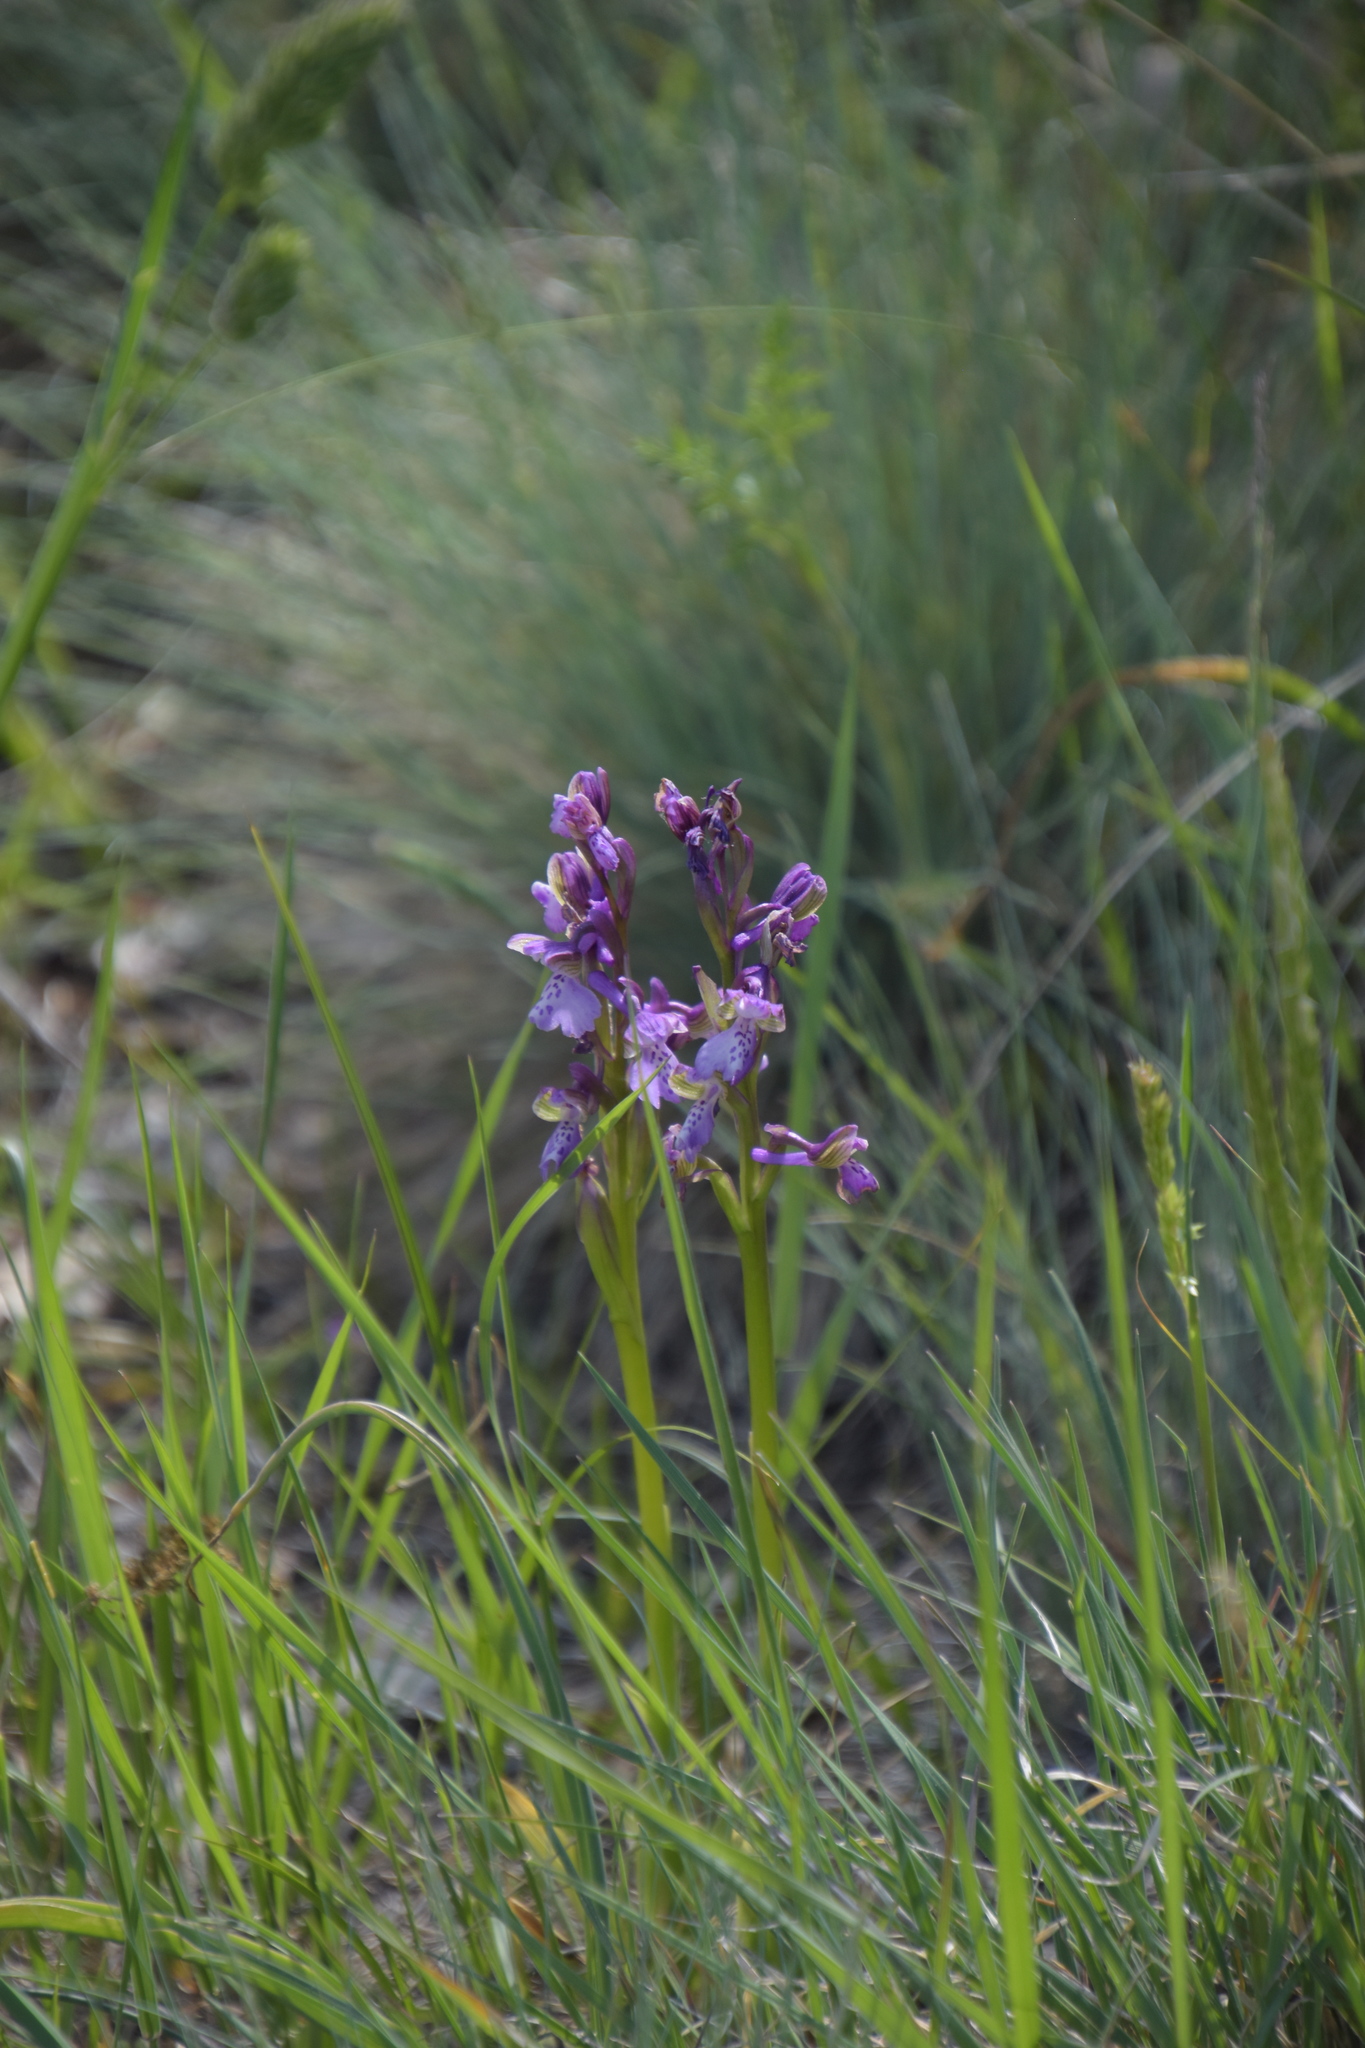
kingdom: Plantae
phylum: Tracheophyta
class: Liliopsida
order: Asparagales
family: Orchidaceae
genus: Anacamptis
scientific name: Anacamptis morio
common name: Green-winged orchid
